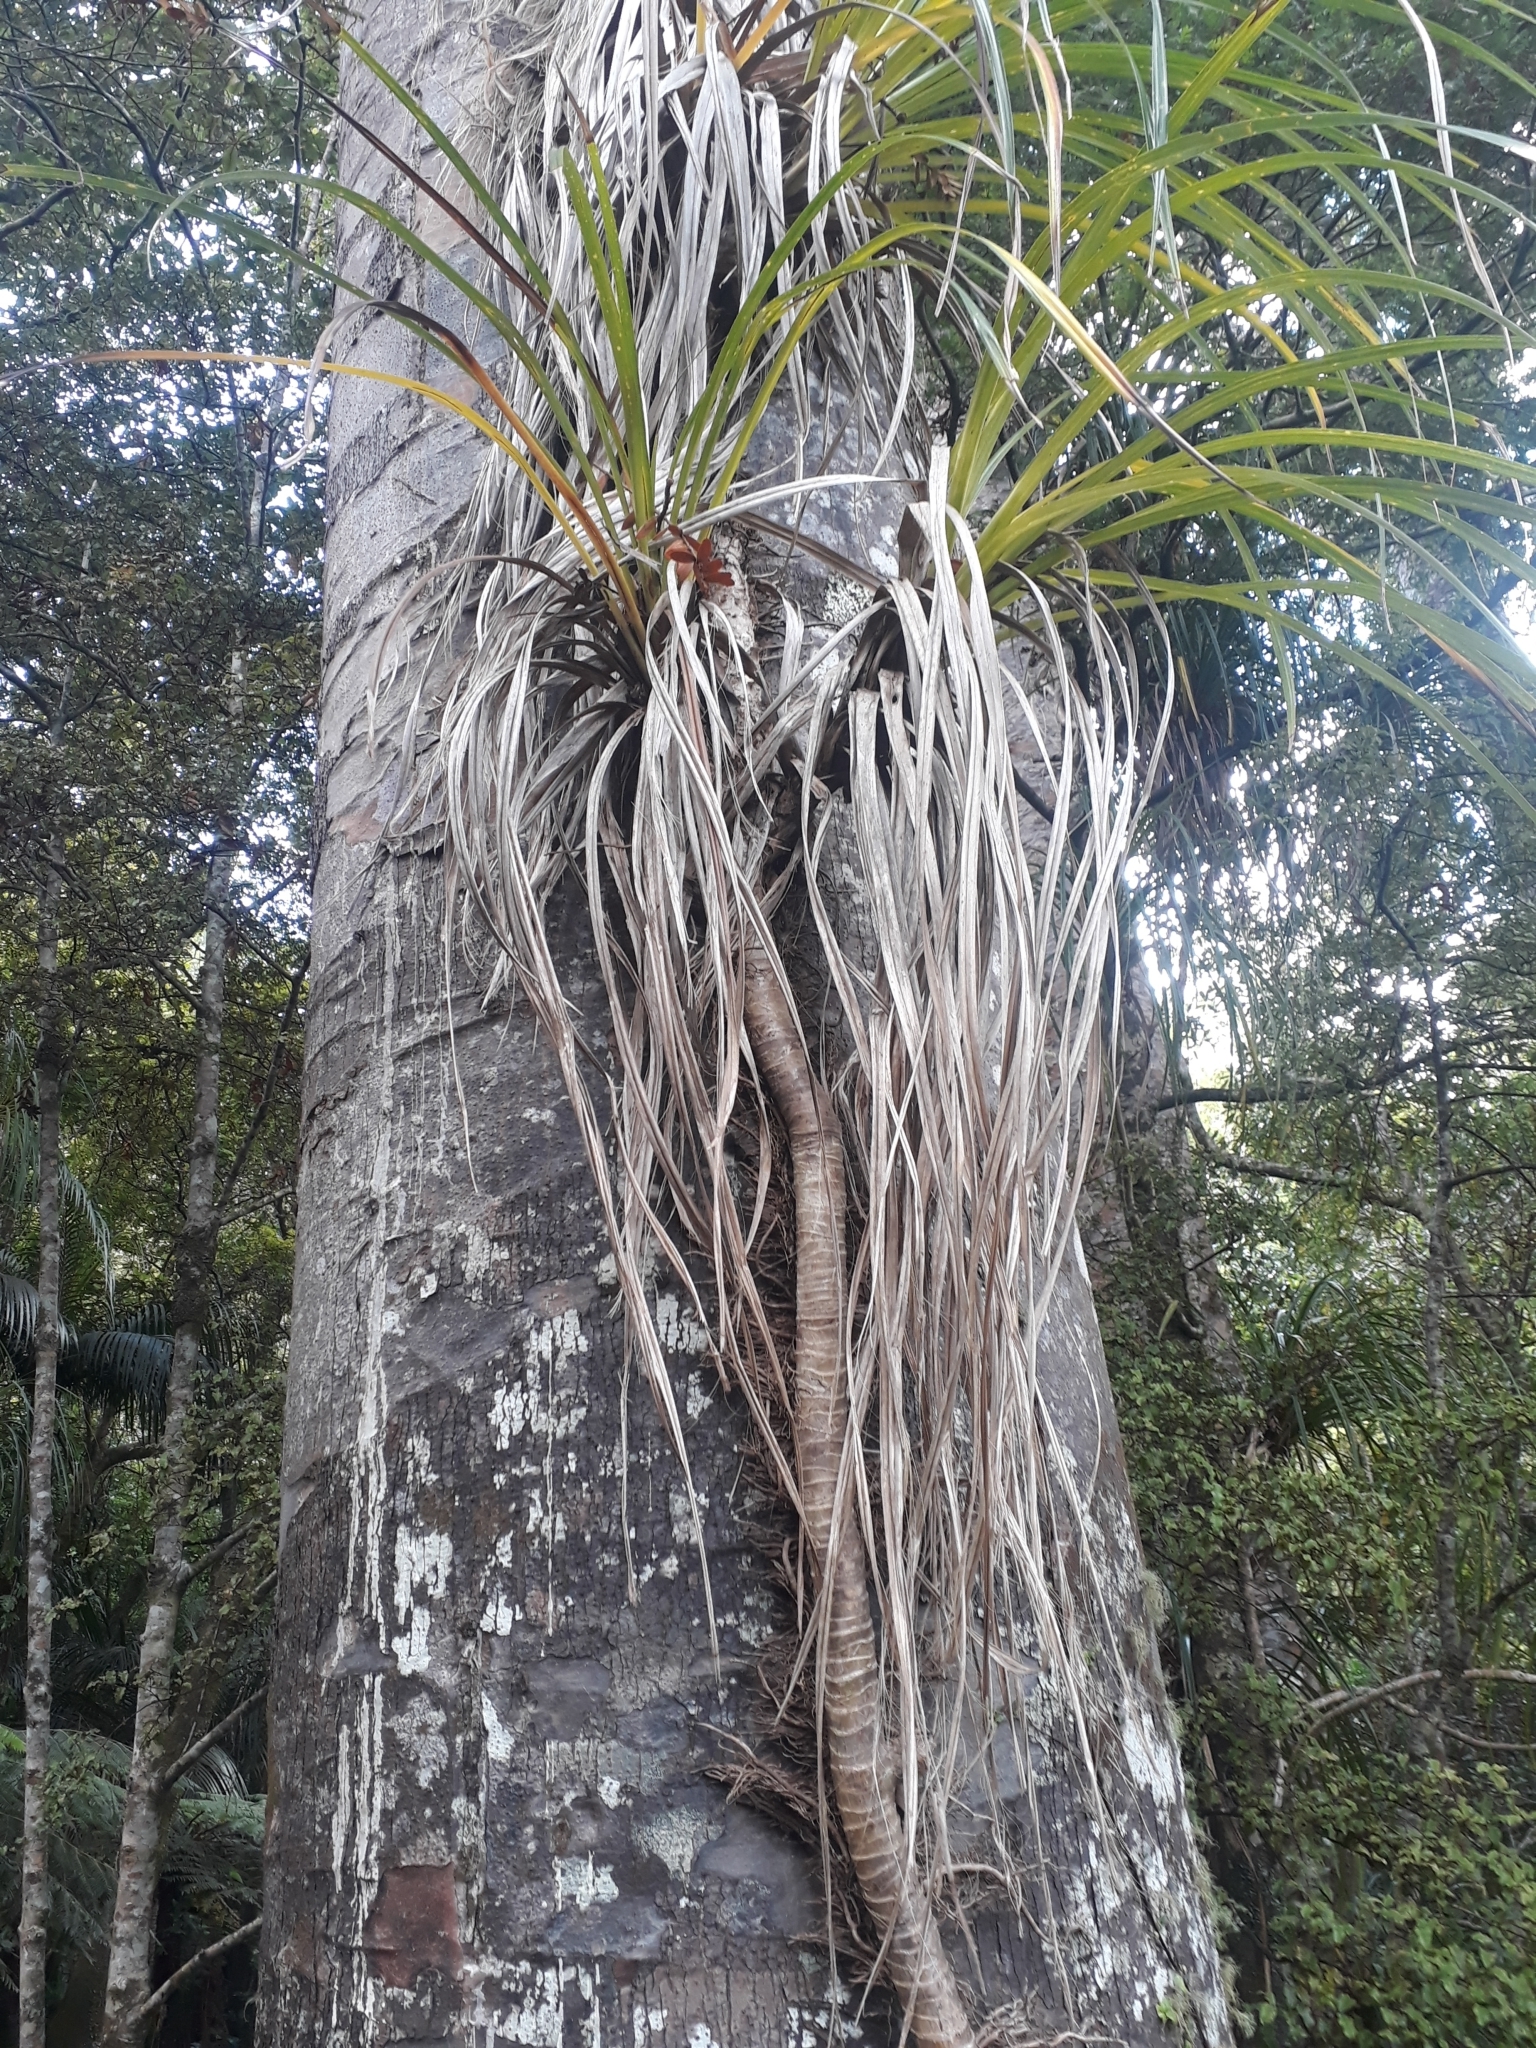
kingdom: Plantae
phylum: Tracheophyta
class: Liliopsida
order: Pandanales
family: Pandanaceae
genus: Freycinetia
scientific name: Freycinetia banksii
